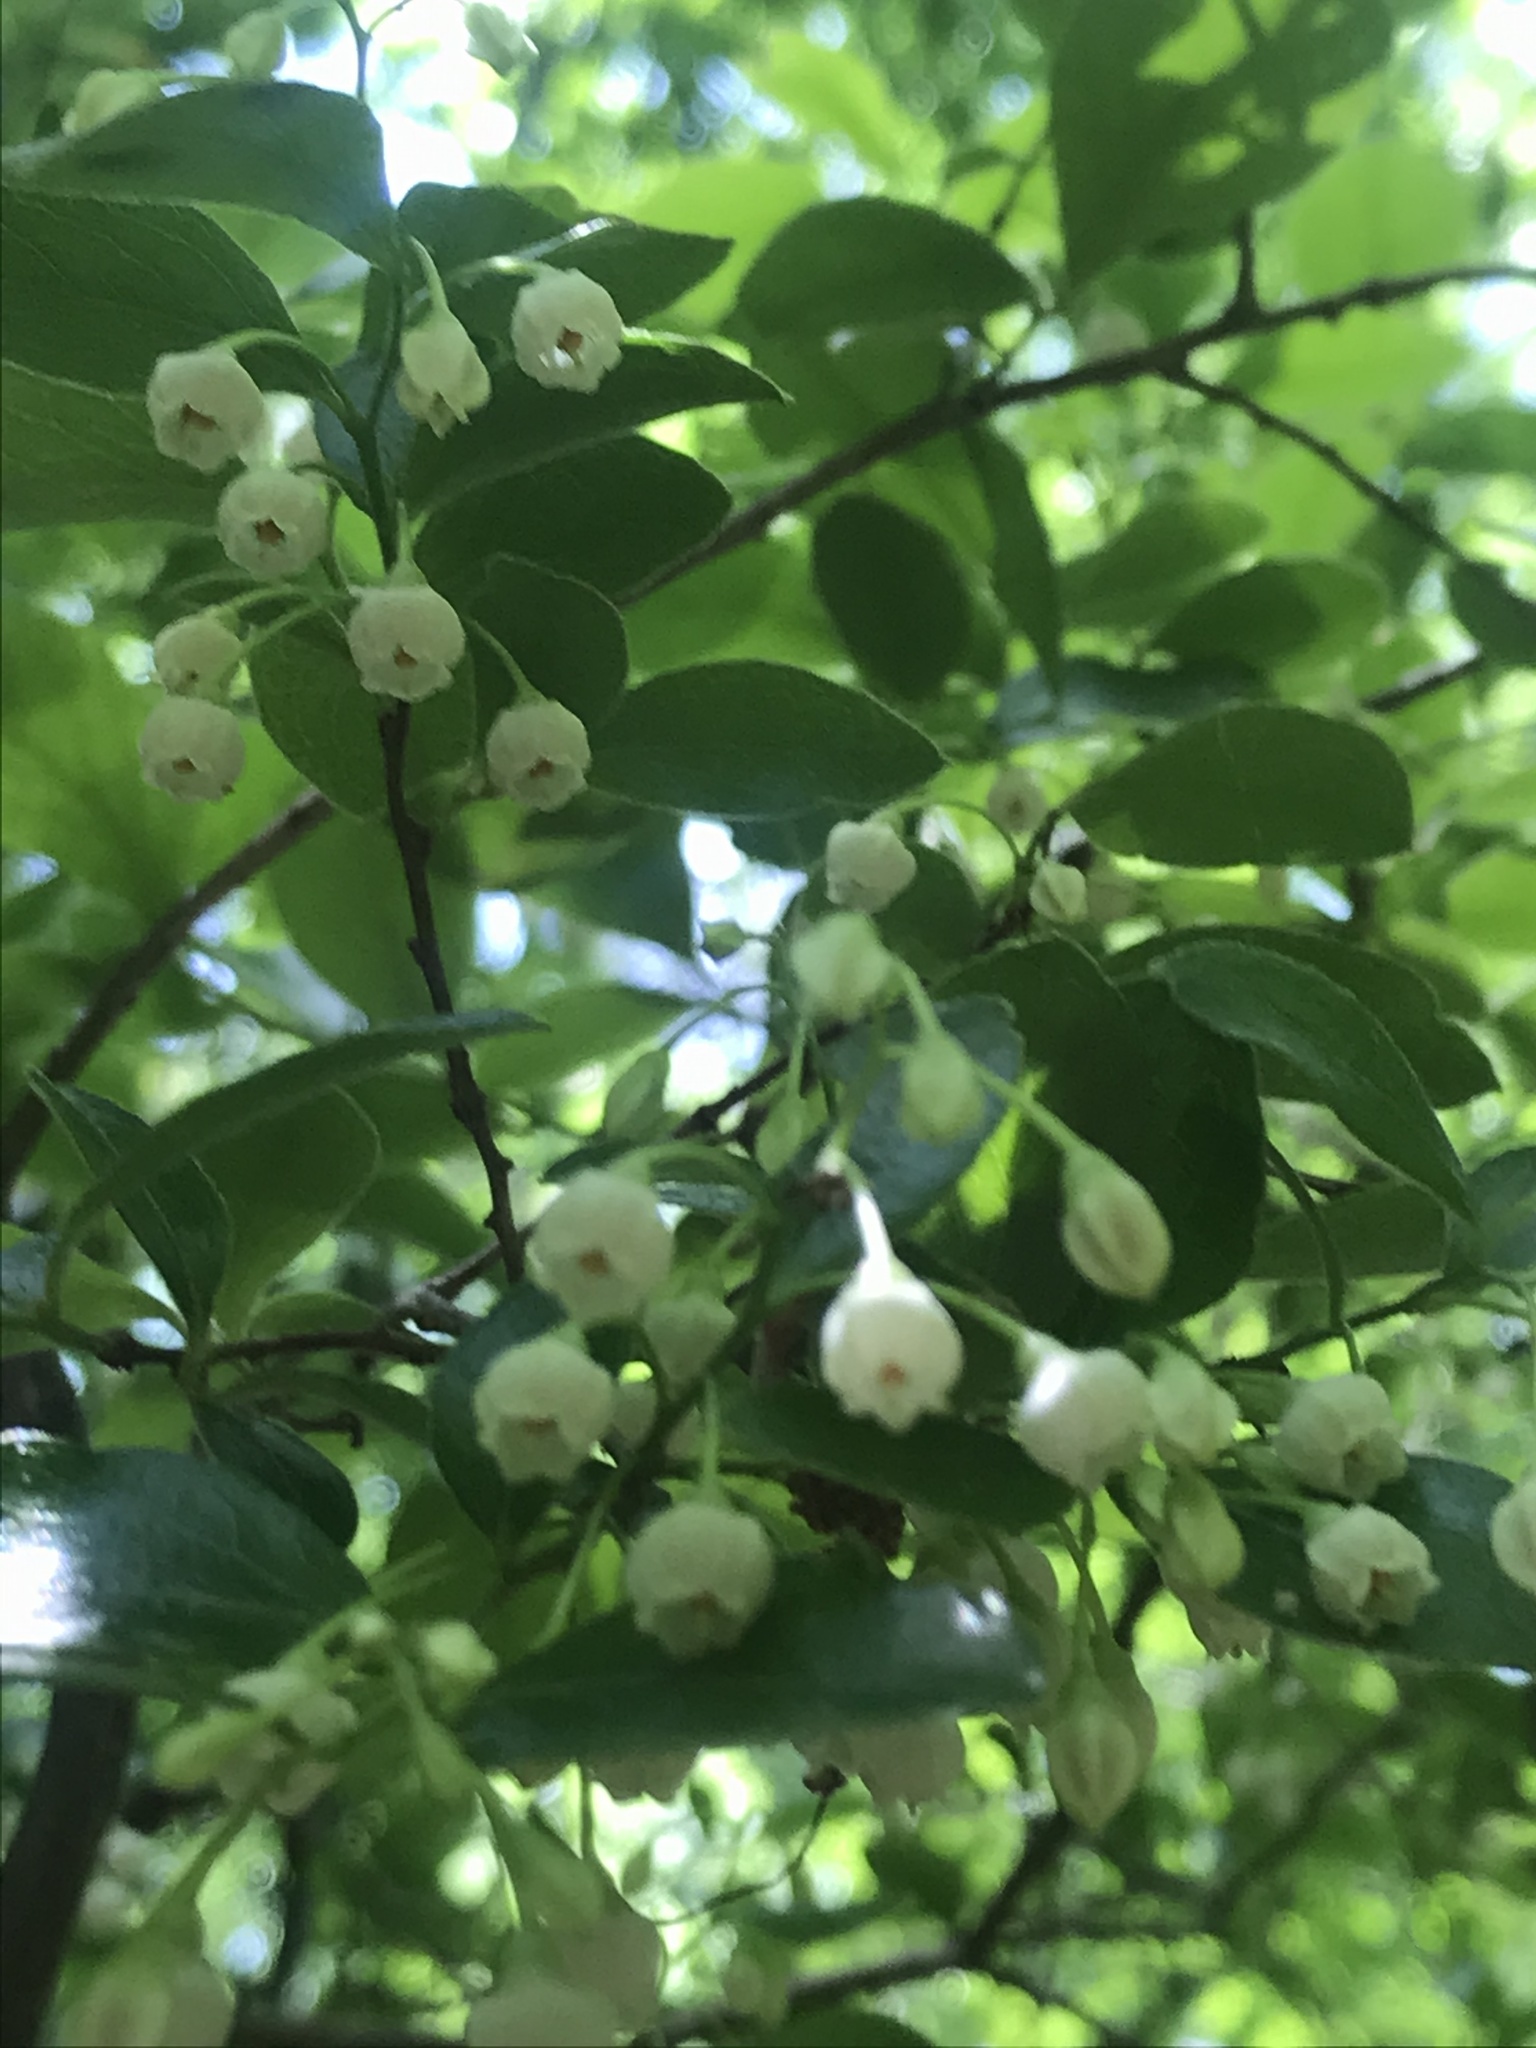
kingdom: Plantae
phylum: Tracheophyta
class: Magnoliopsida
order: Ericales
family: Ericaceae
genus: Vaccinium
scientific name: Vaccinium arboreum
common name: Farkleberry
